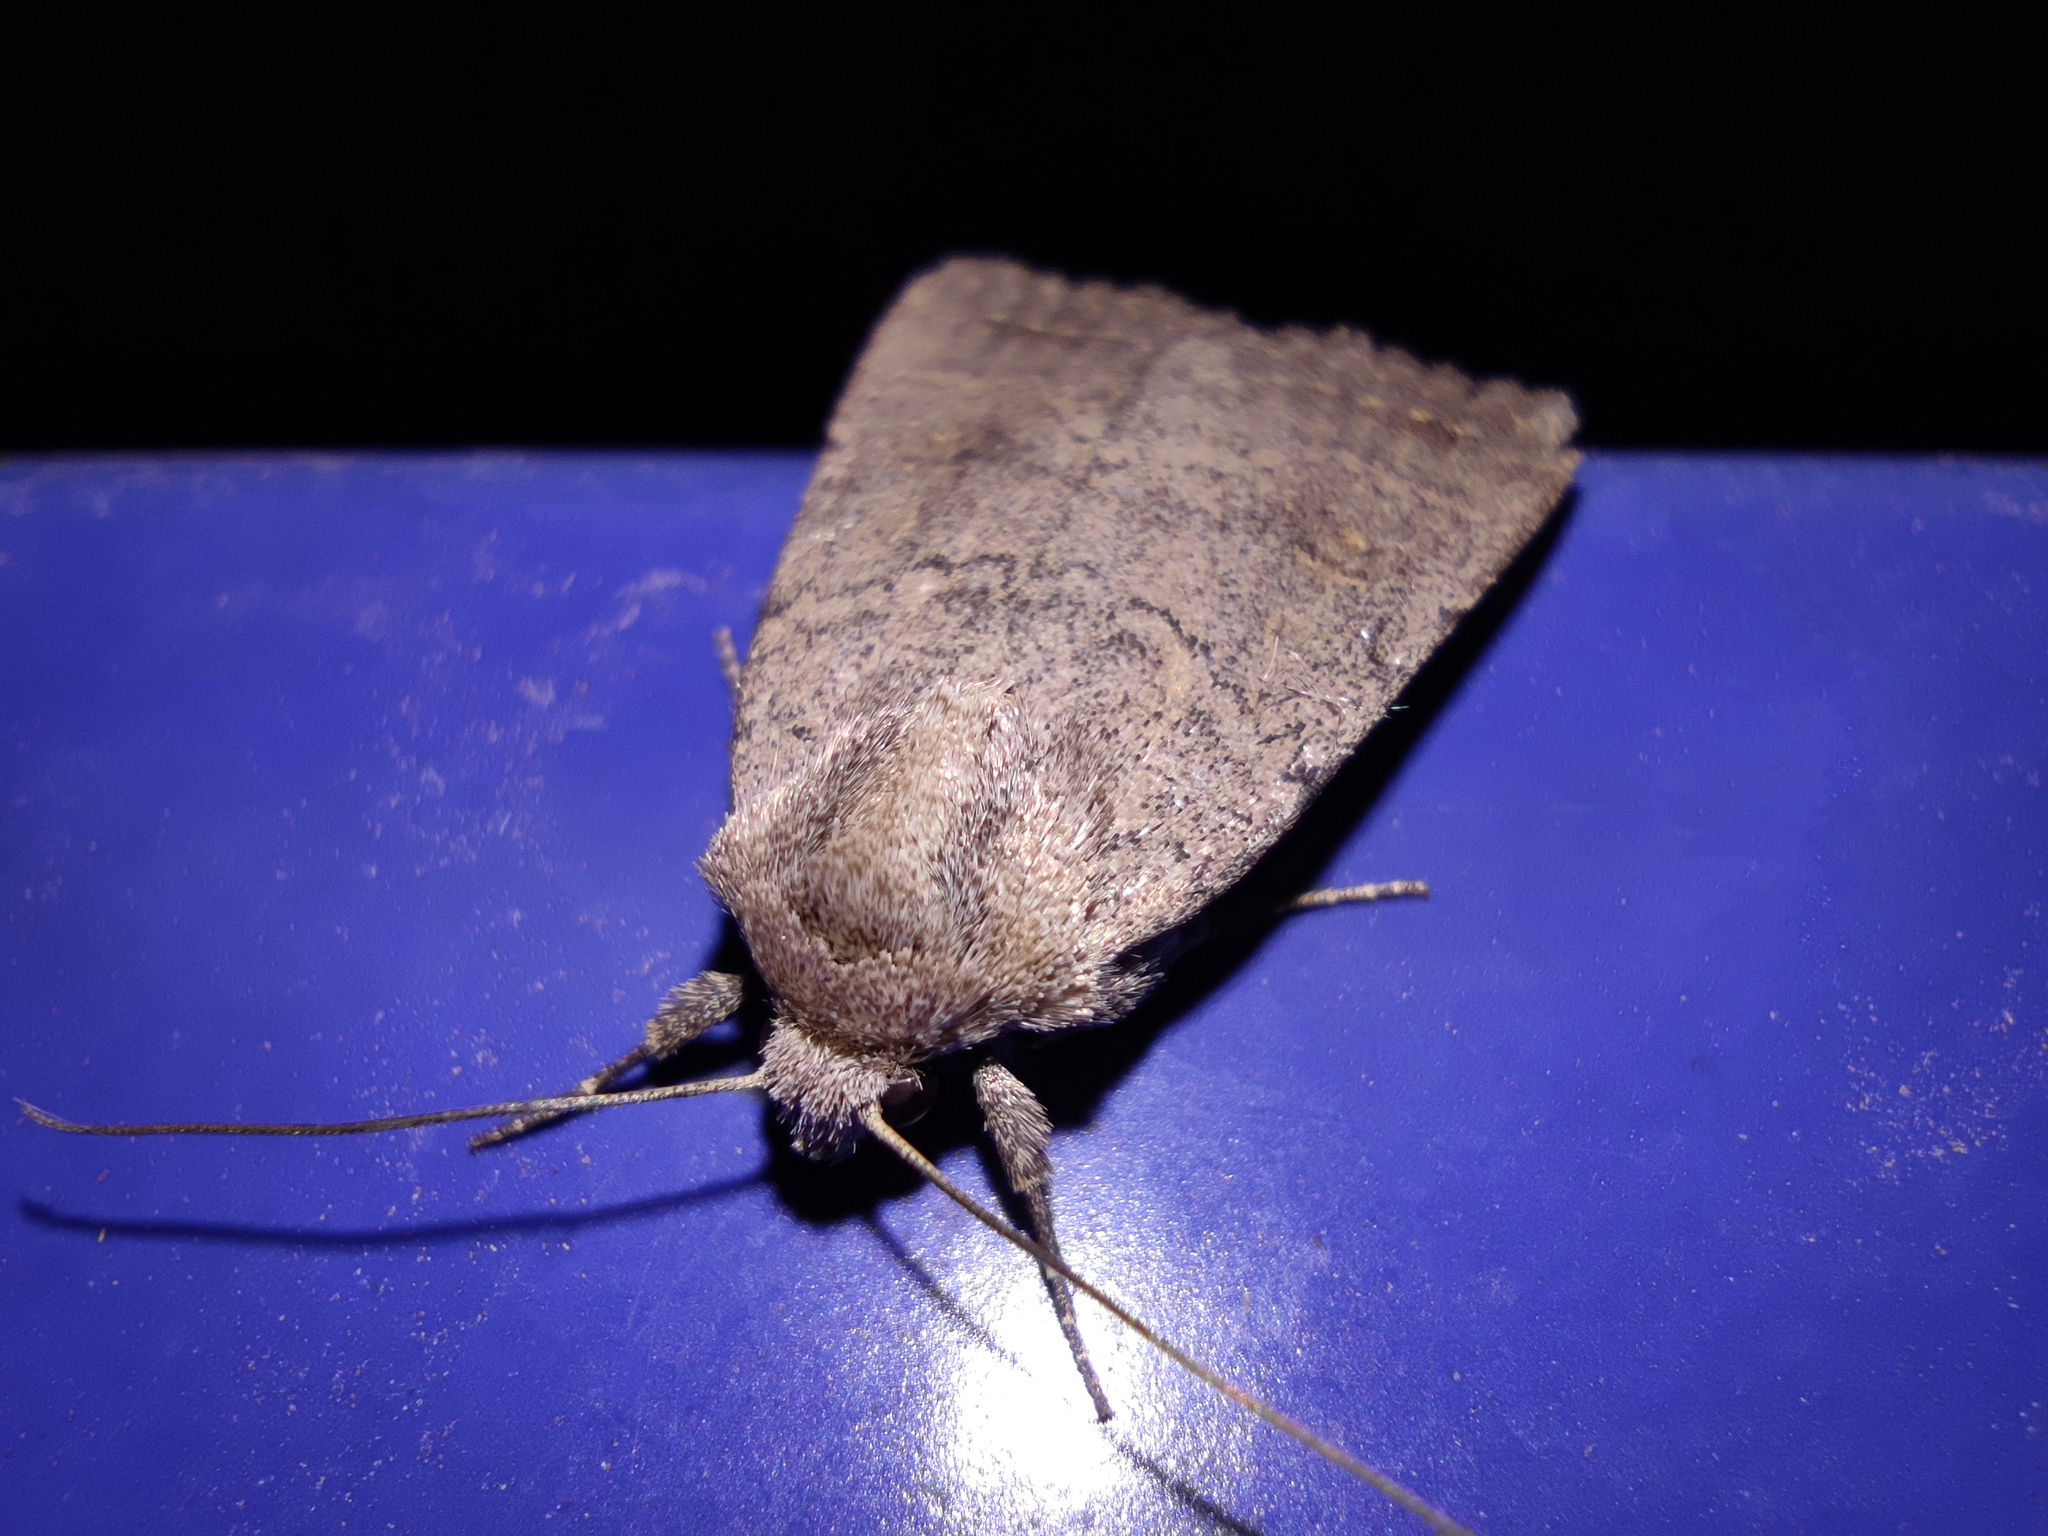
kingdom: Animalia
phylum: Arthropoda
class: Insecta
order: Lepidoptera
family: Noctuidae
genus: Caradrina
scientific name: Caradrina terrea
